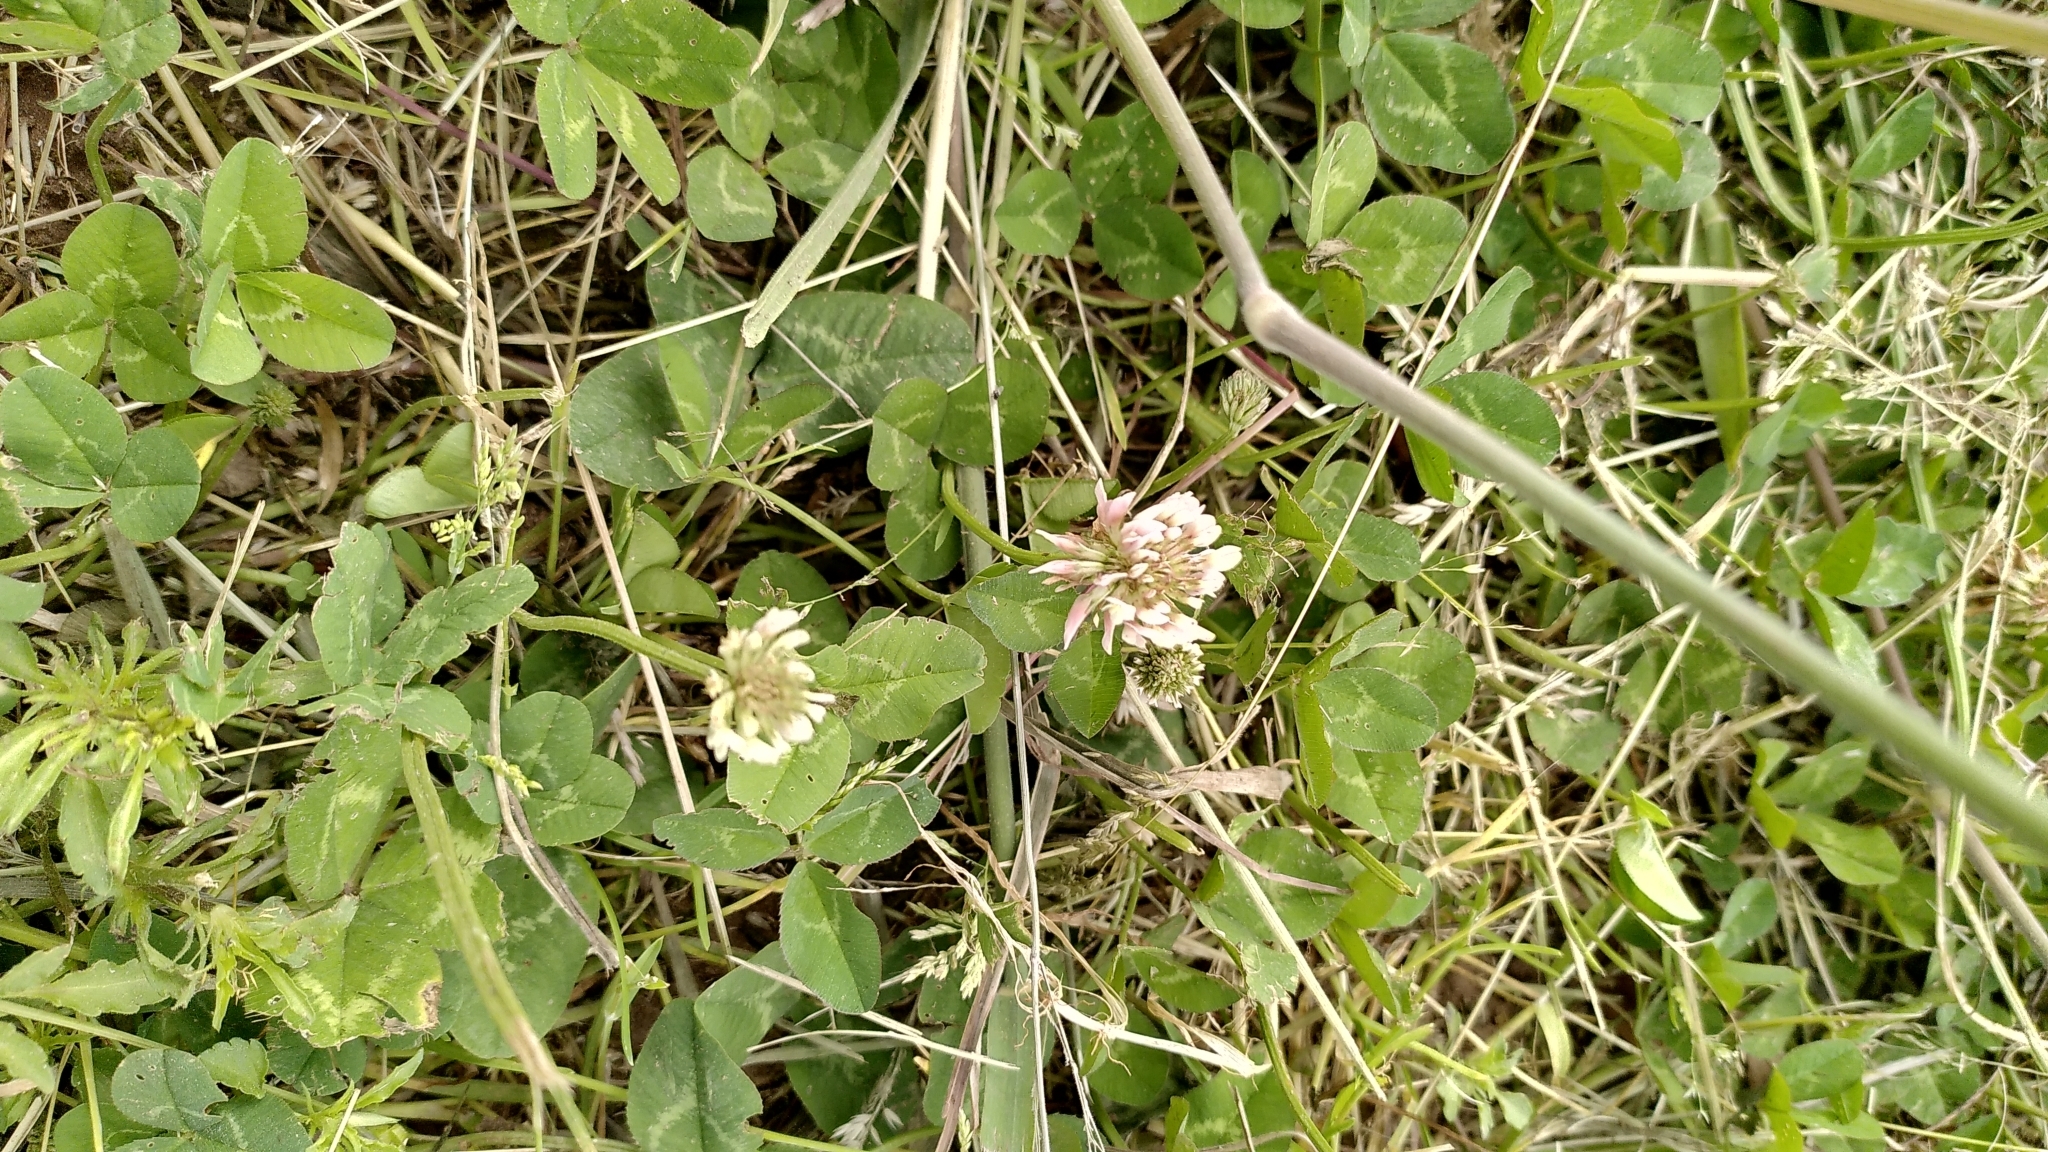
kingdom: Plantae
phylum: Tracheophyta
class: Magnoliopsida
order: Fabales
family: Fabaceae
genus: Trifolium
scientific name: Trifolium repens
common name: White clover
